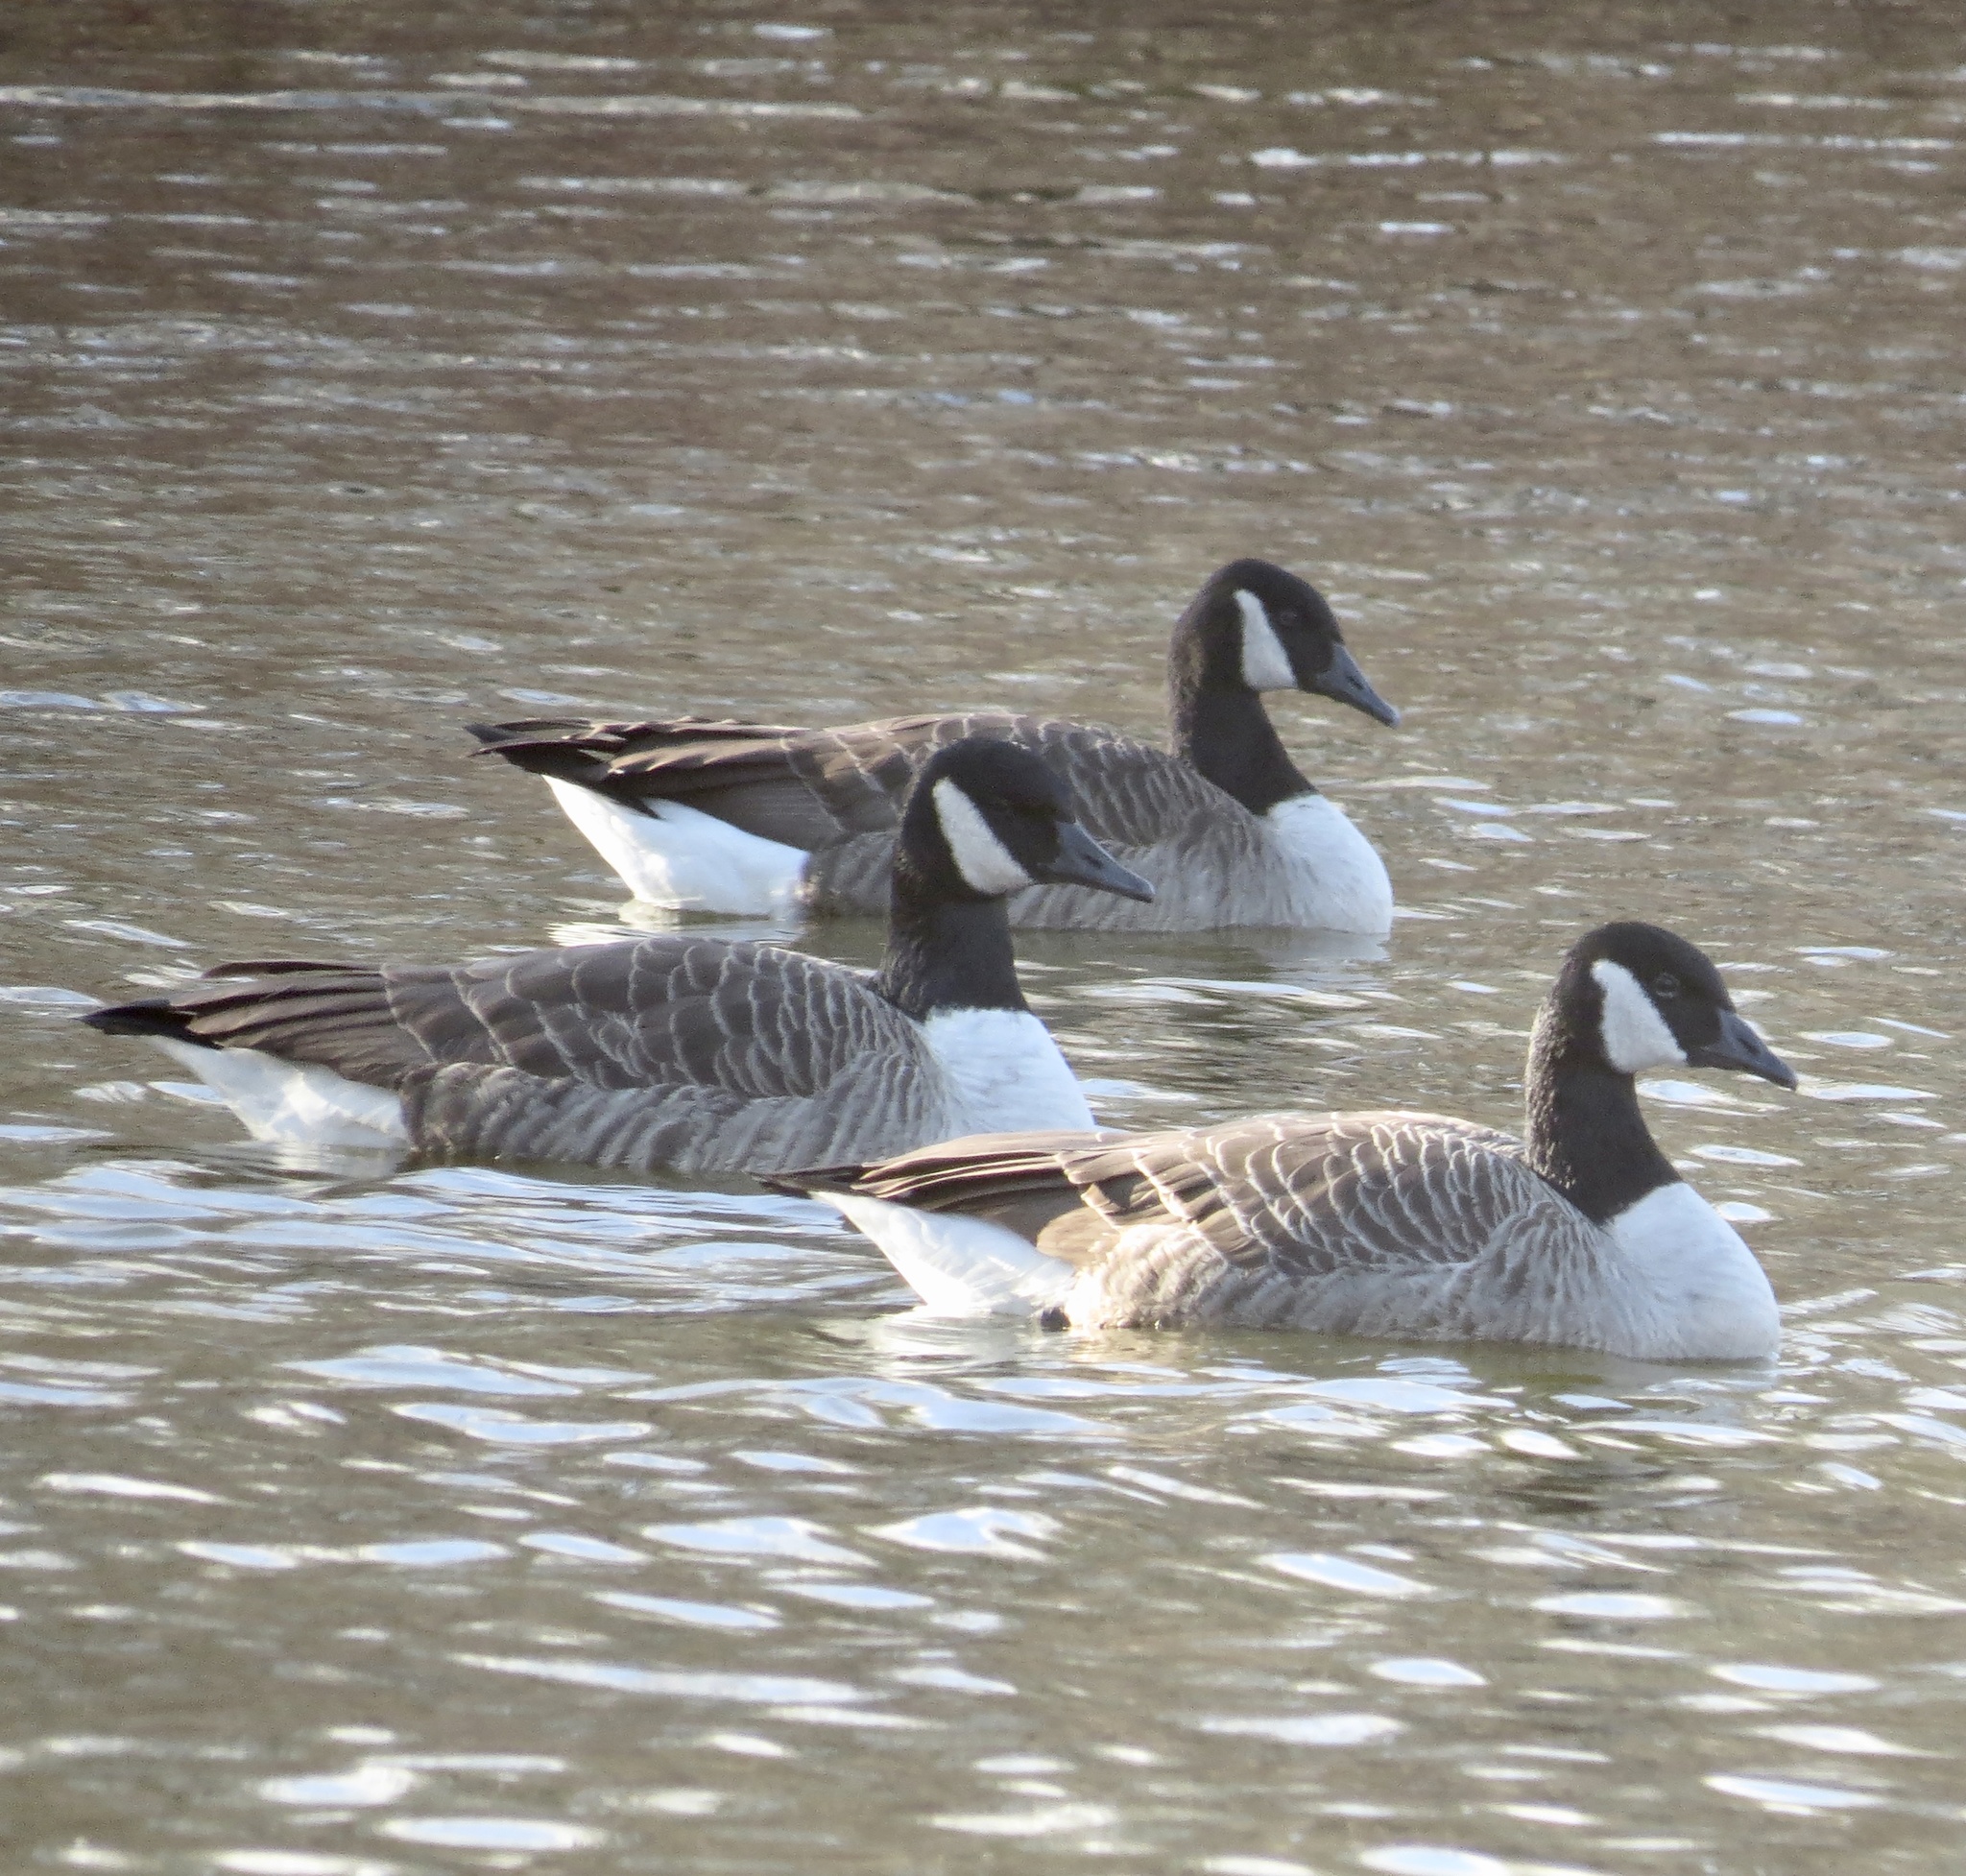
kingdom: Animalia
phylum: Chordata
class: Aves
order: Anseriformes
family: Anatidae
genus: Branta
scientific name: Branta canadensis
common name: Canada goose
